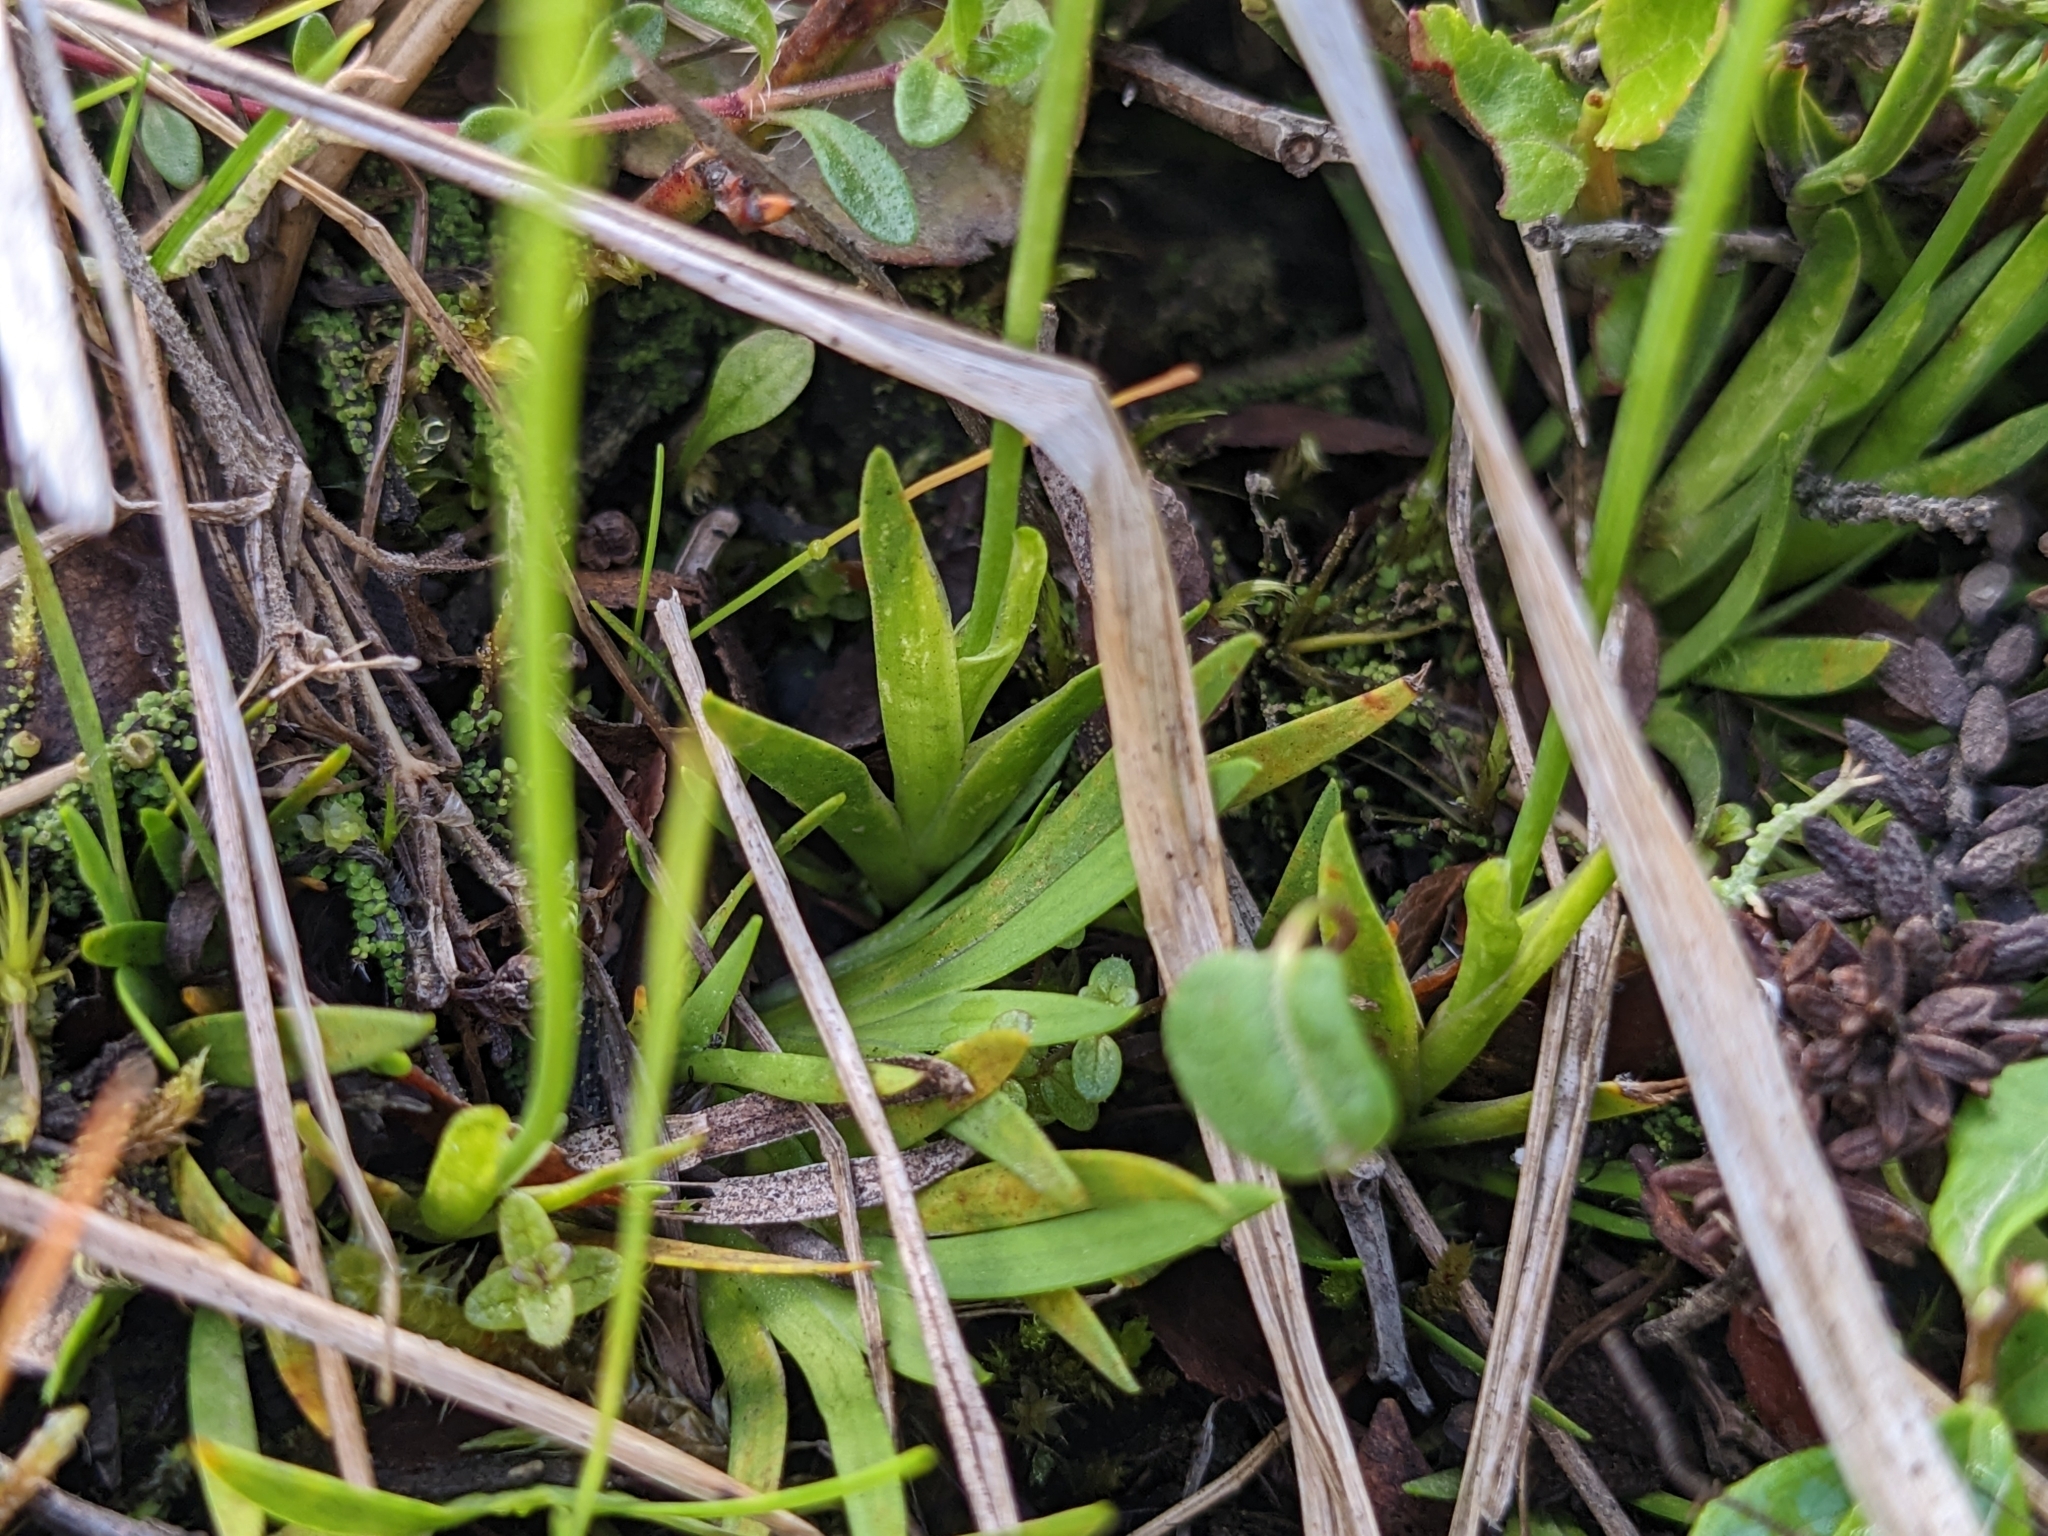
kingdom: Plantae
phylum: Tracheophyta
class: Liliopsida
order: Alismatales
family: Tofieldiaceae
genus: Tofieldia
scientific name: Tofieldia pusilla
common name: Scottish false asphodel
